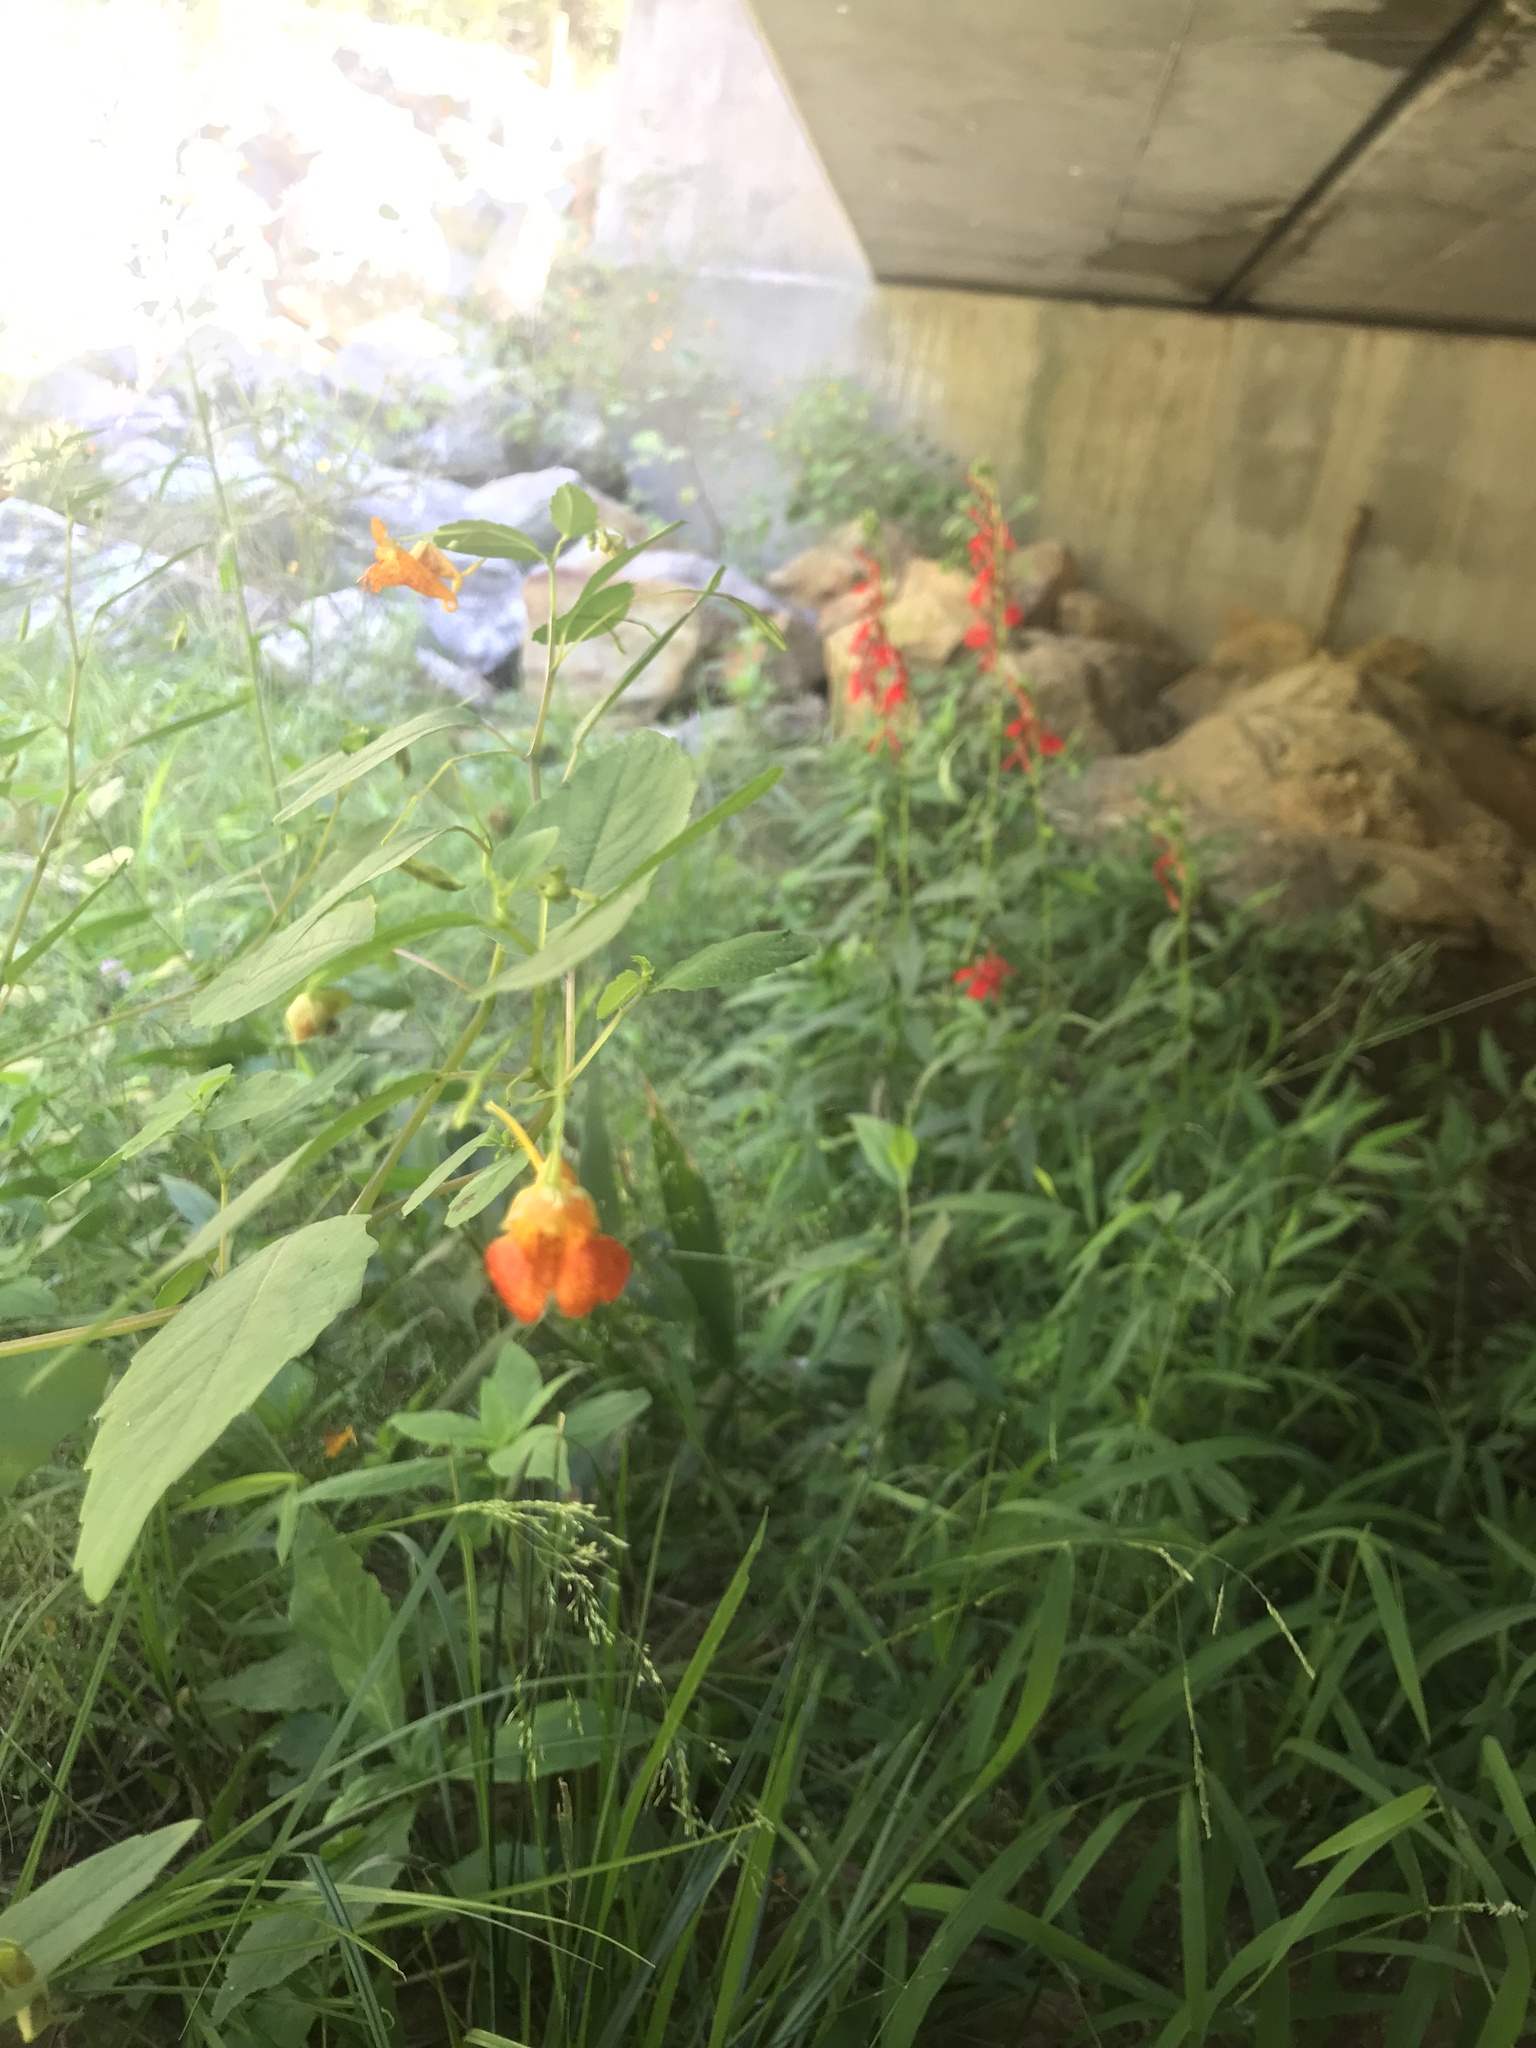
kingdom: Plantae
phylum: Tracheophyta
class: Magnoliopsida
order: Ericales
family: Balsaminaceae
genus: Impatiens
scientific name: Impatiens capensis
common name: Orange balsam
